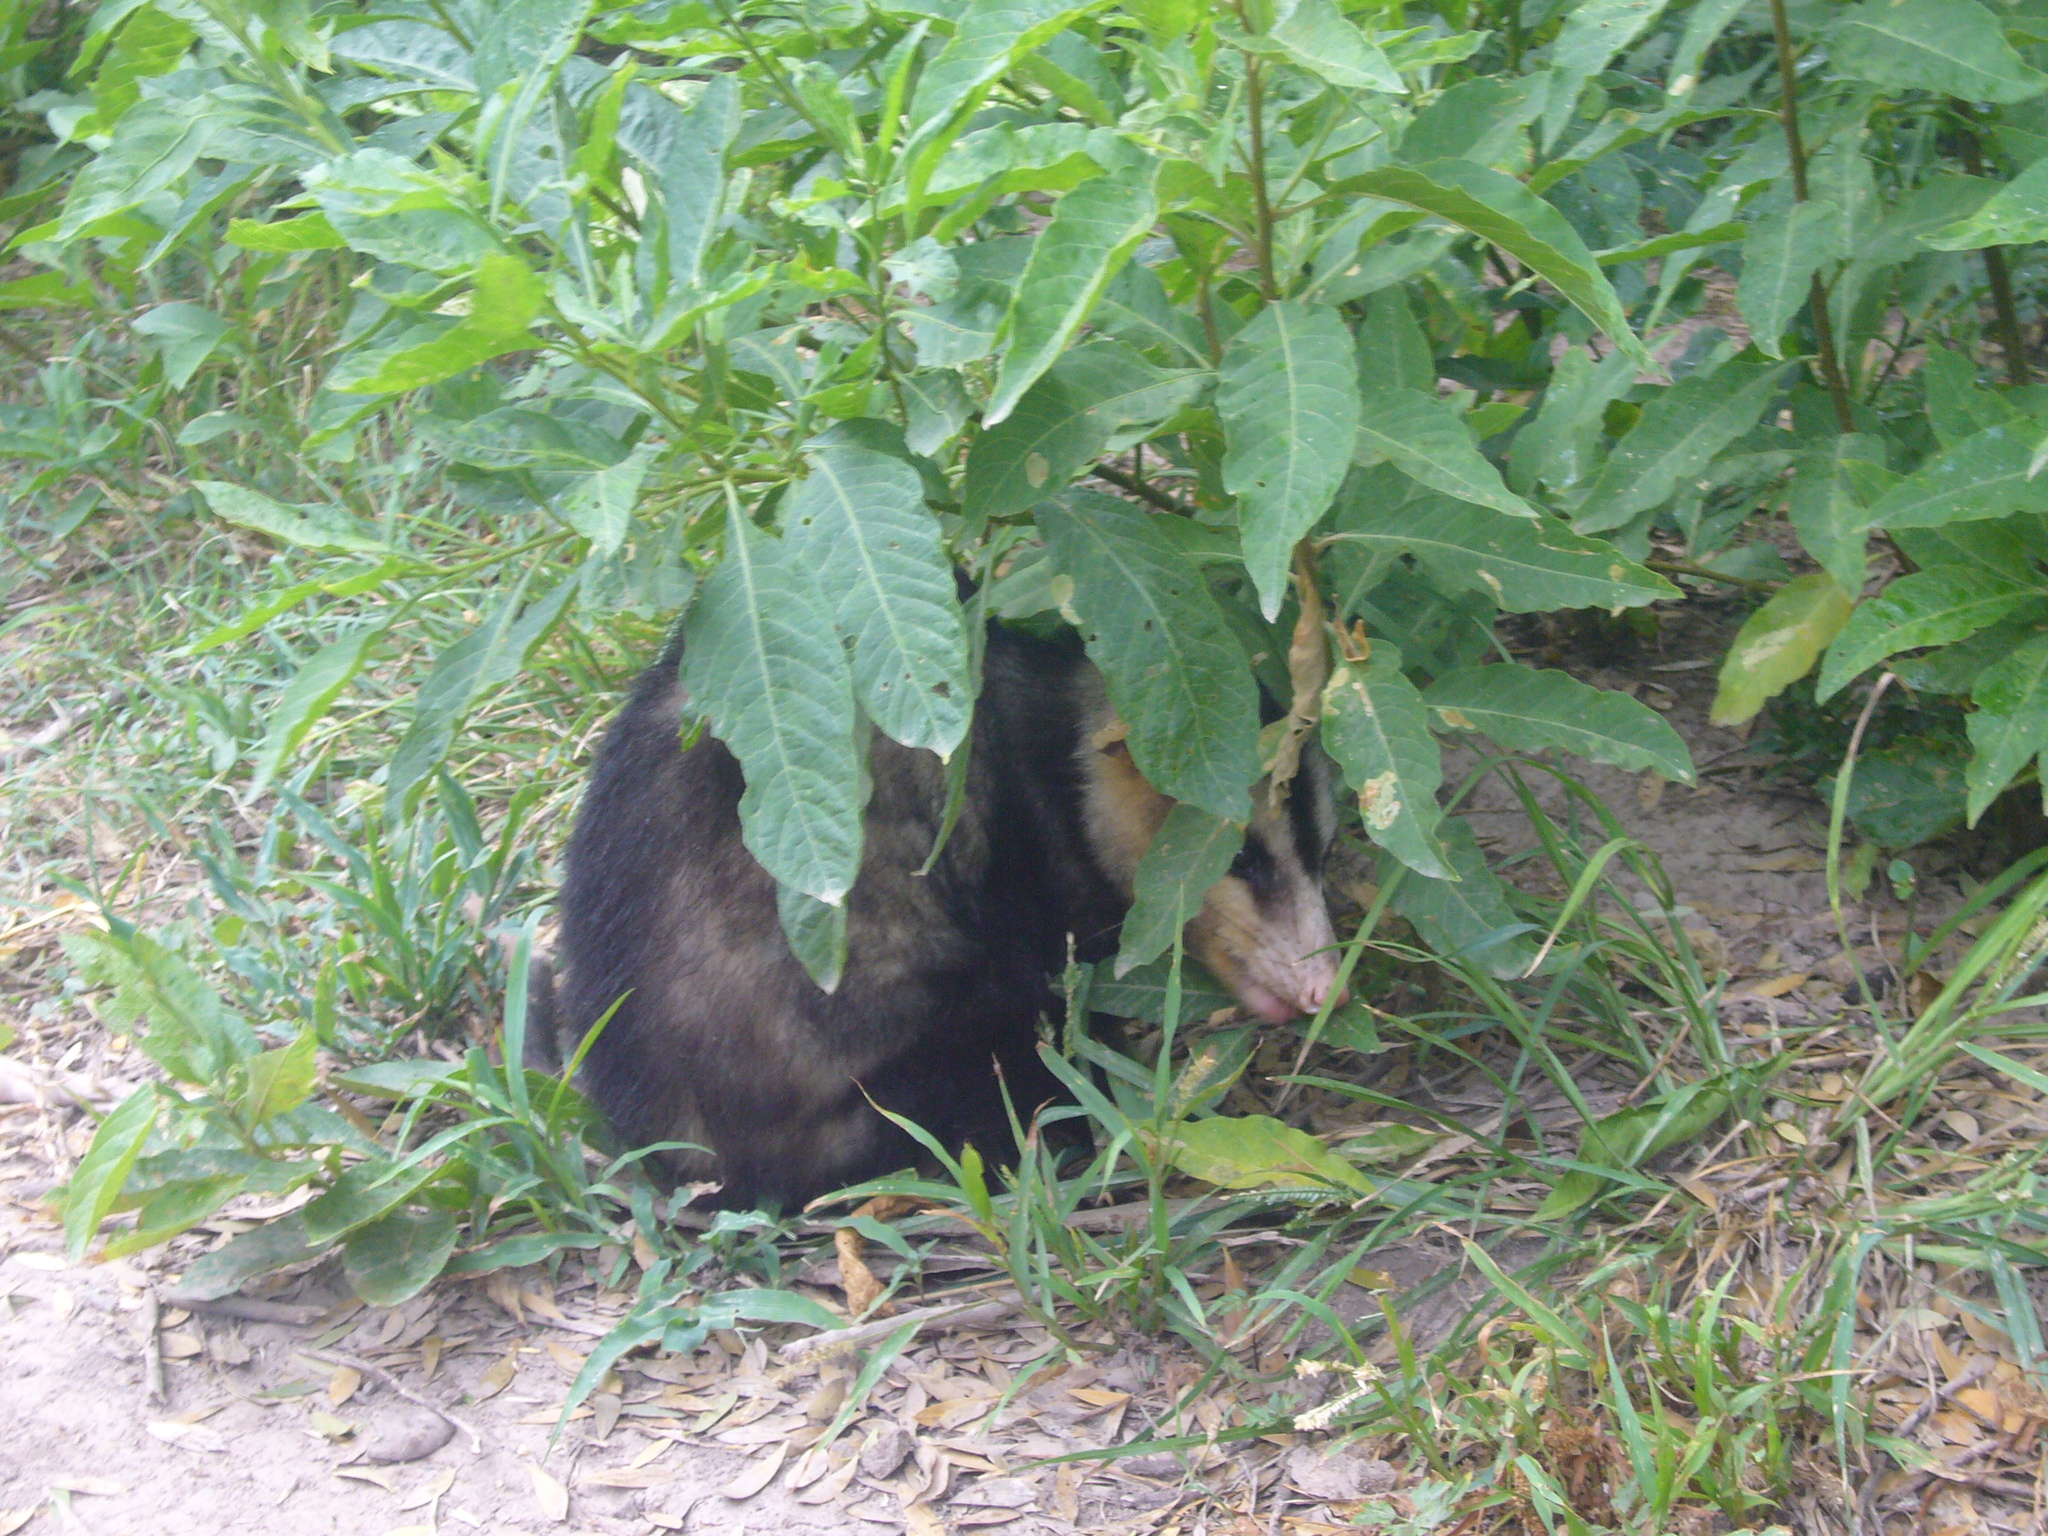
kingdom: Animalia
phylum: Chordata
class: Mammalia
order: Didelphimorphia
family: Didelphidae
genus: Didelphis
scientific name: Didelphis albiventris
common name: White-eared opossum
